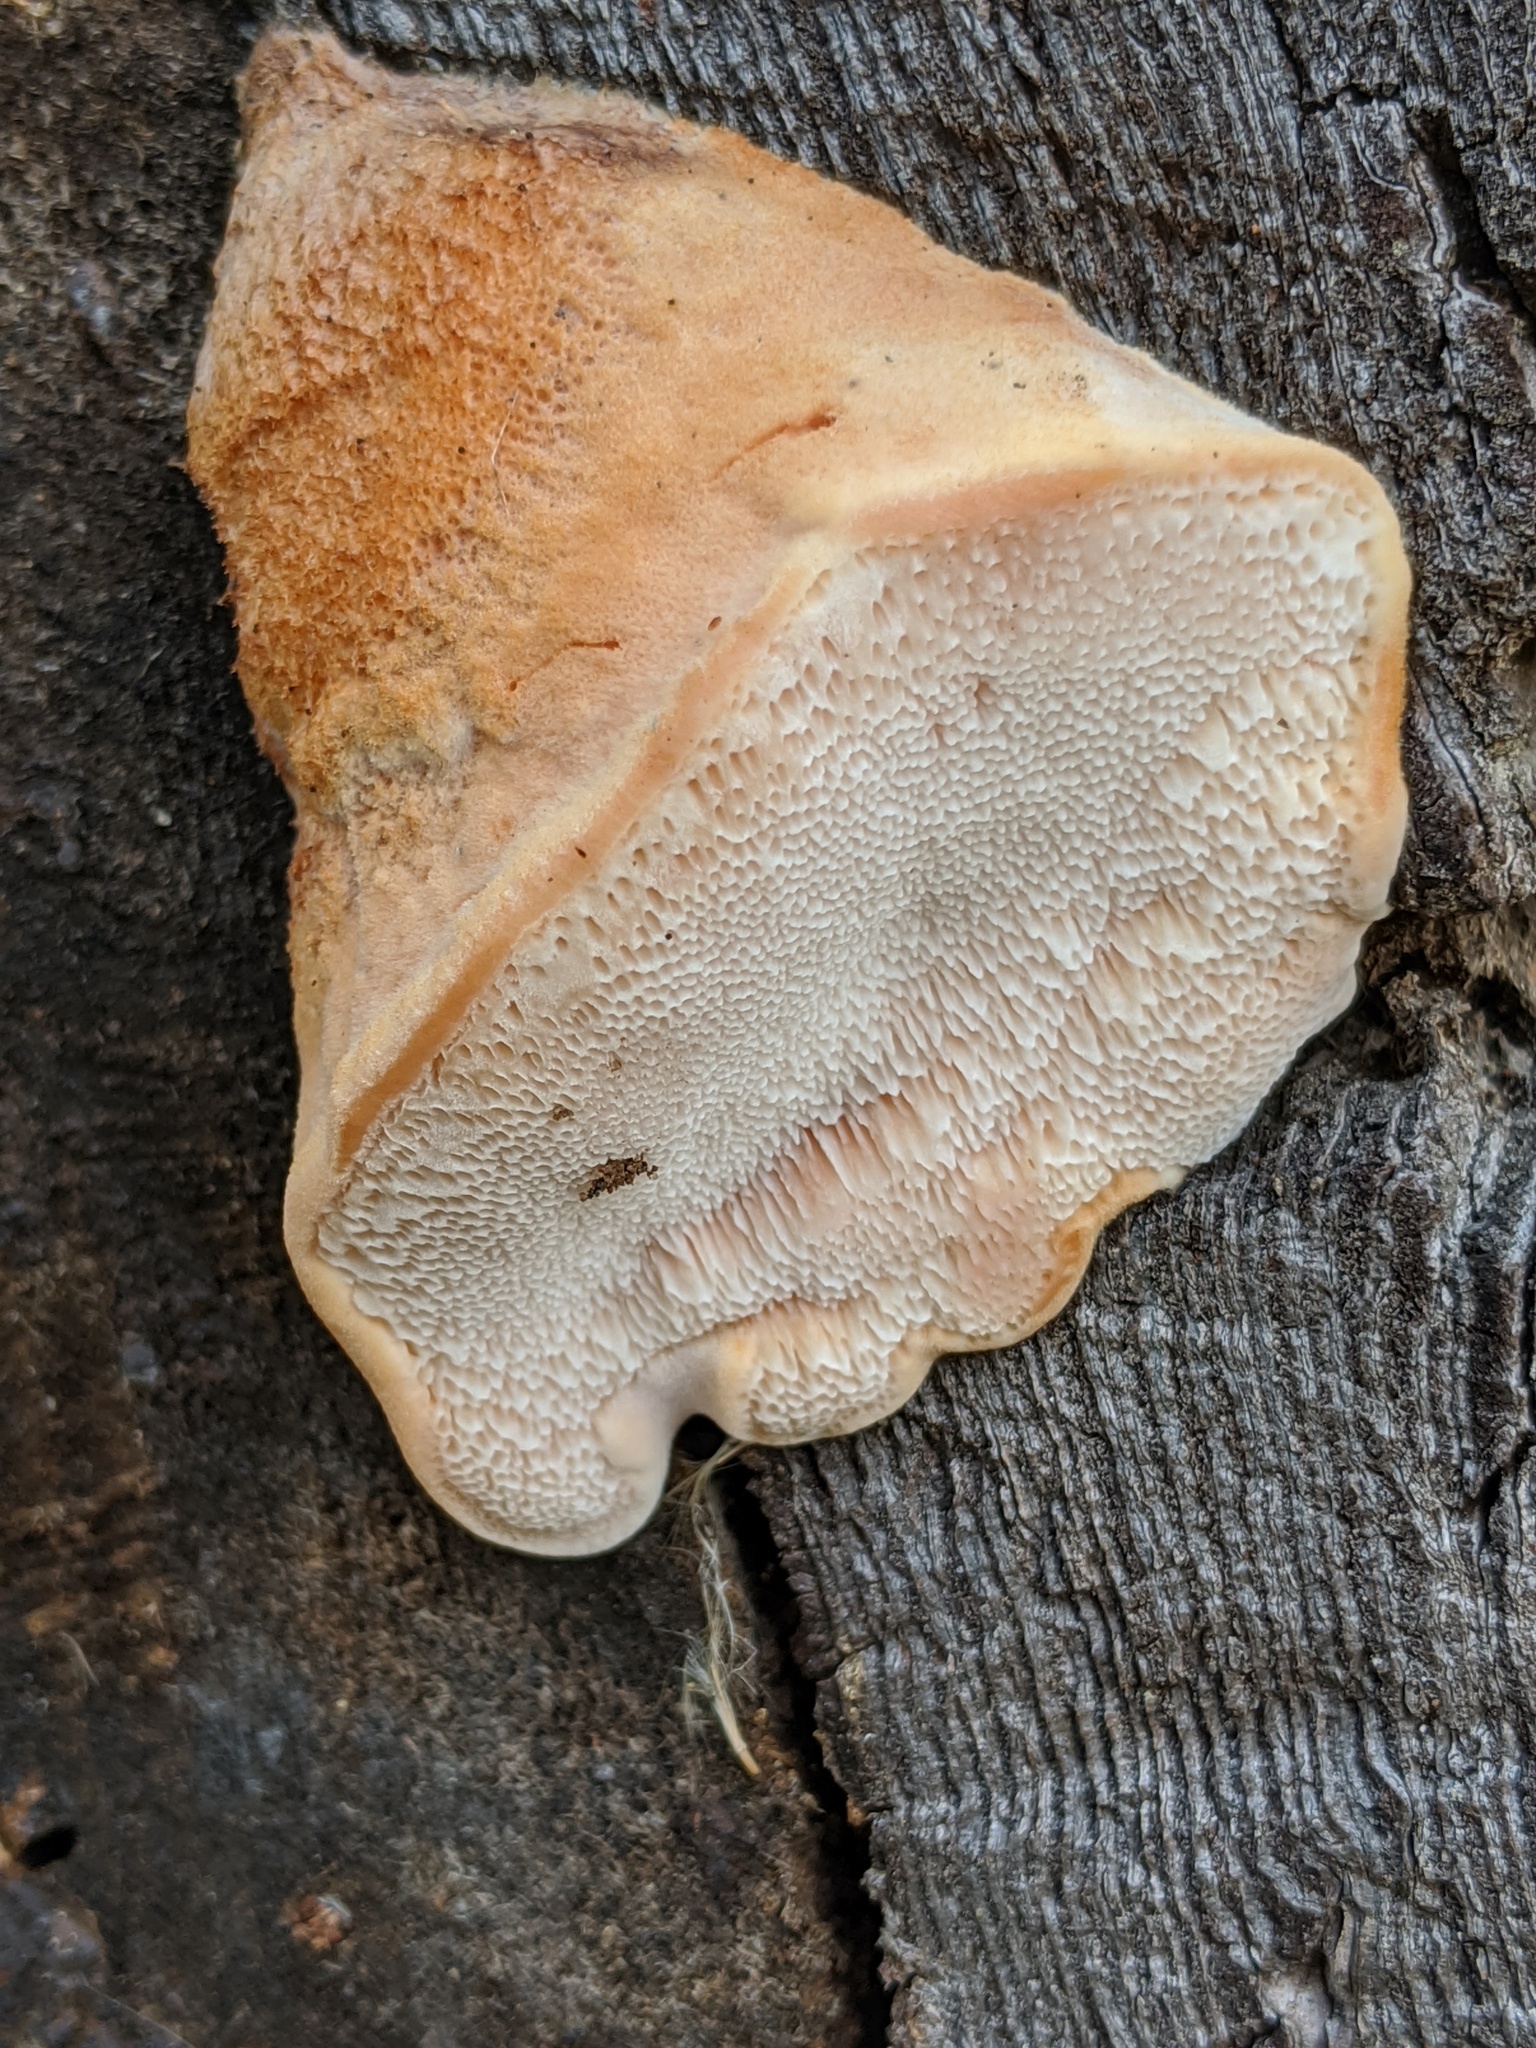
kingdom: Fungi
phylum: Basidiomycota
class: Agaricomycetes
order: Polyporales
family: Irpicaceae
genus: Leptoporus
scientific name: Leptoporus mollis
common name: Soft bracket
